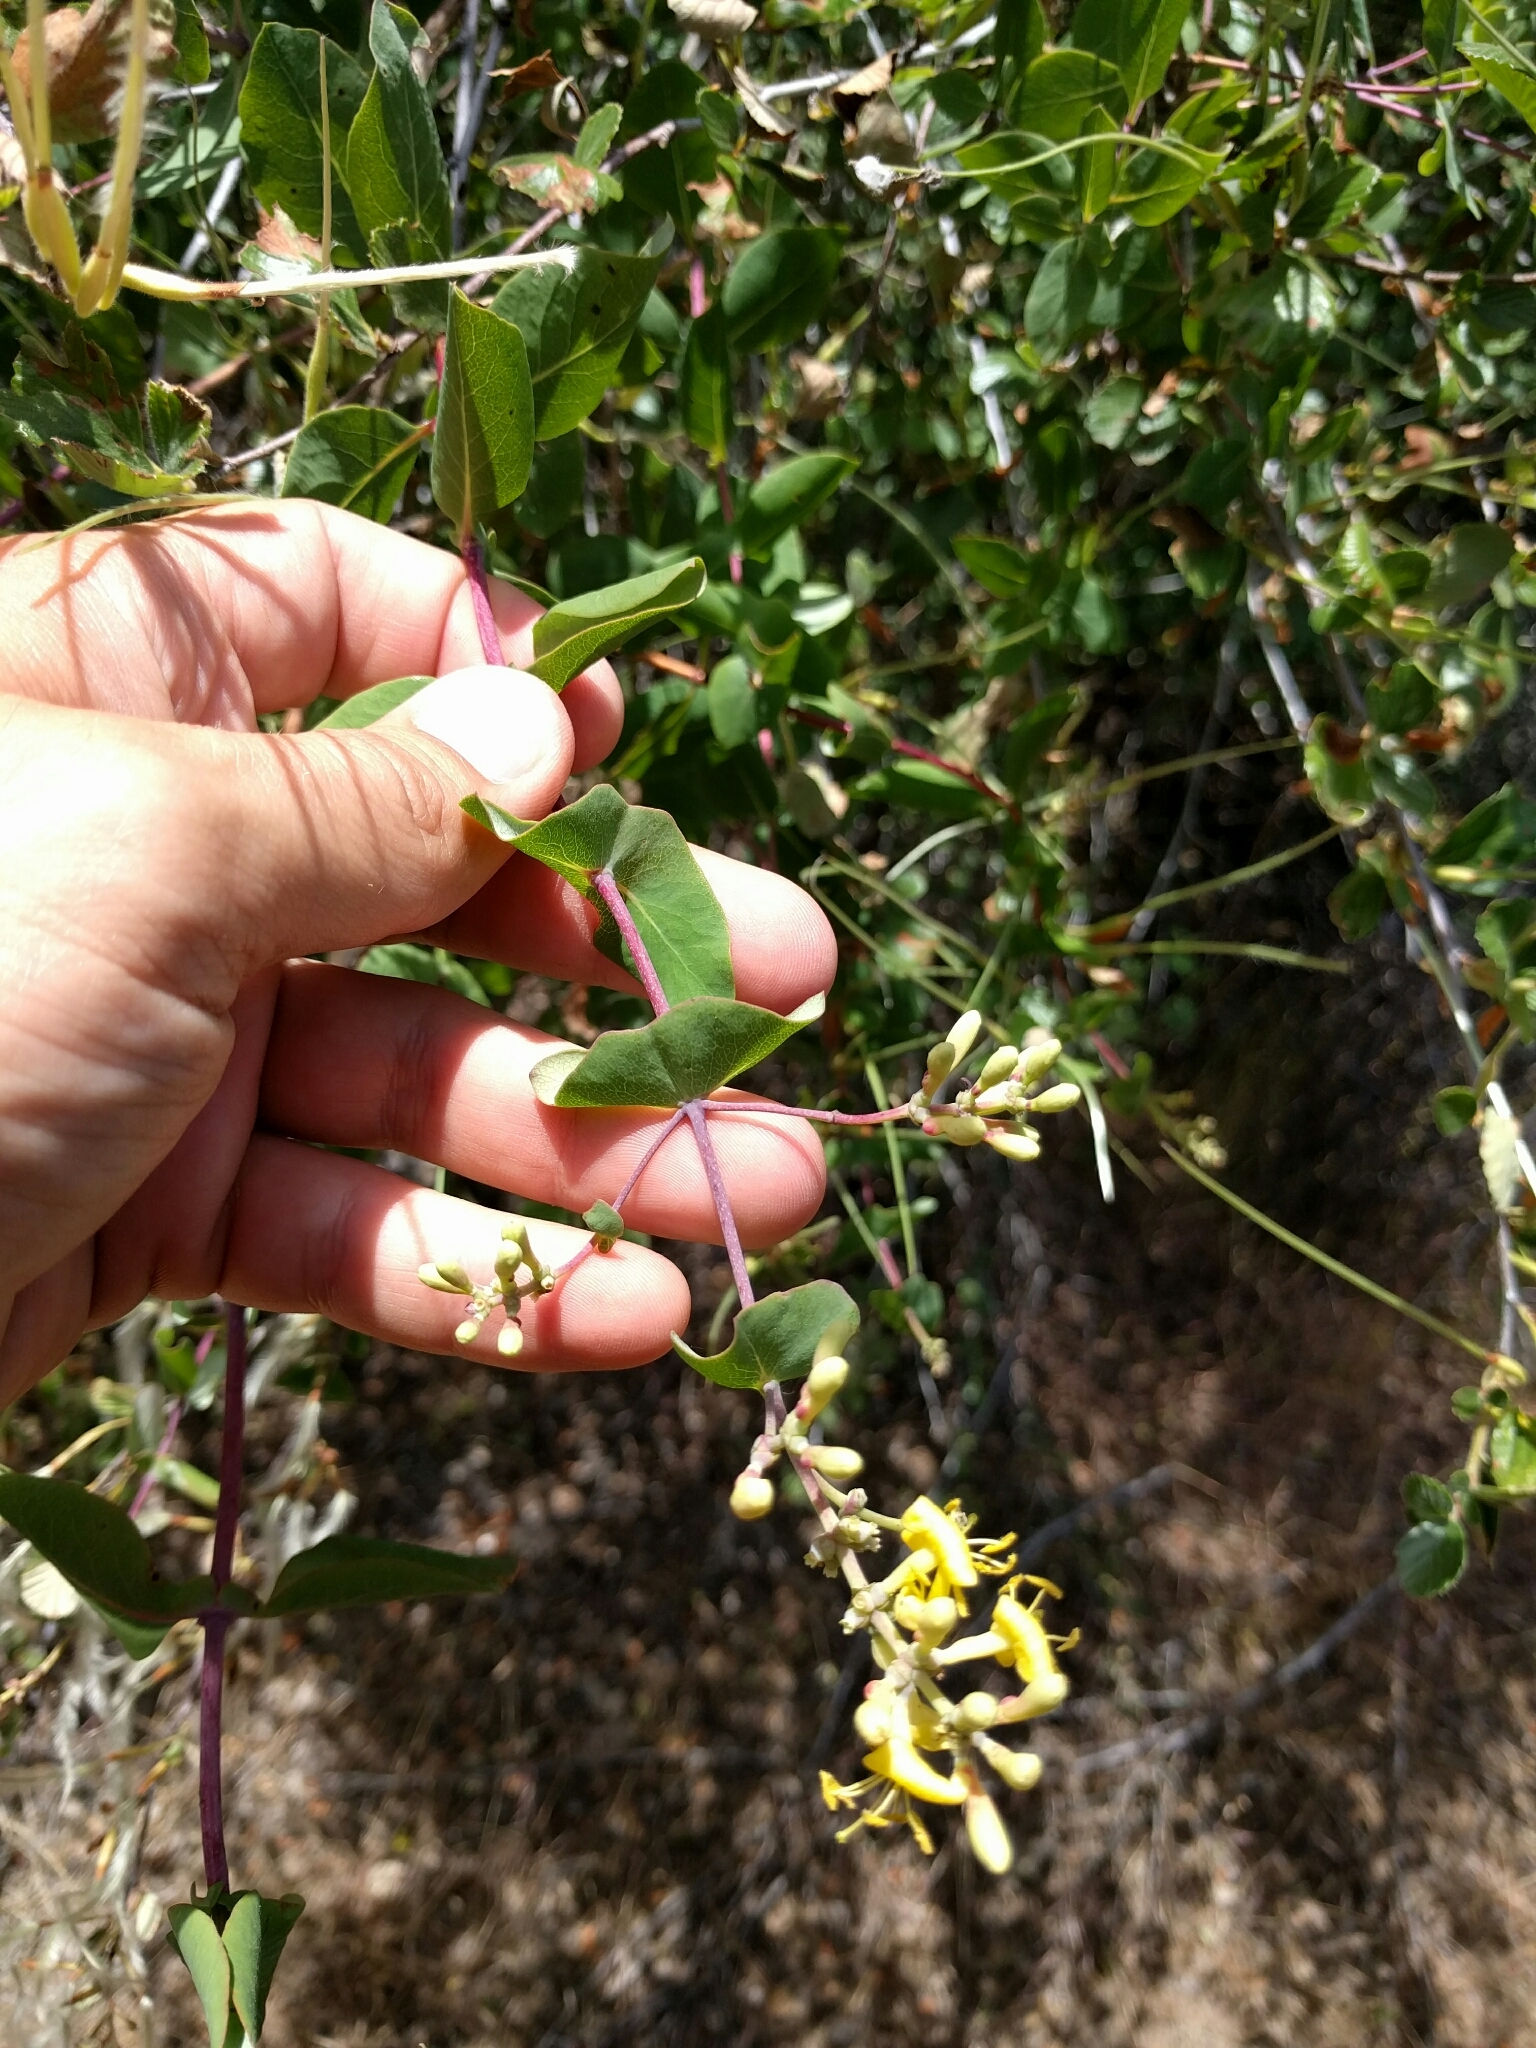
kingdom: Plantae
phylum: Tracheophyta
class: Magnoliopsida
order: Dipsacales
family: Caprifoliaceae
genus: Lonicera
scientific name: Lonicera interrupta
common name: Chaparral honeysuckle
